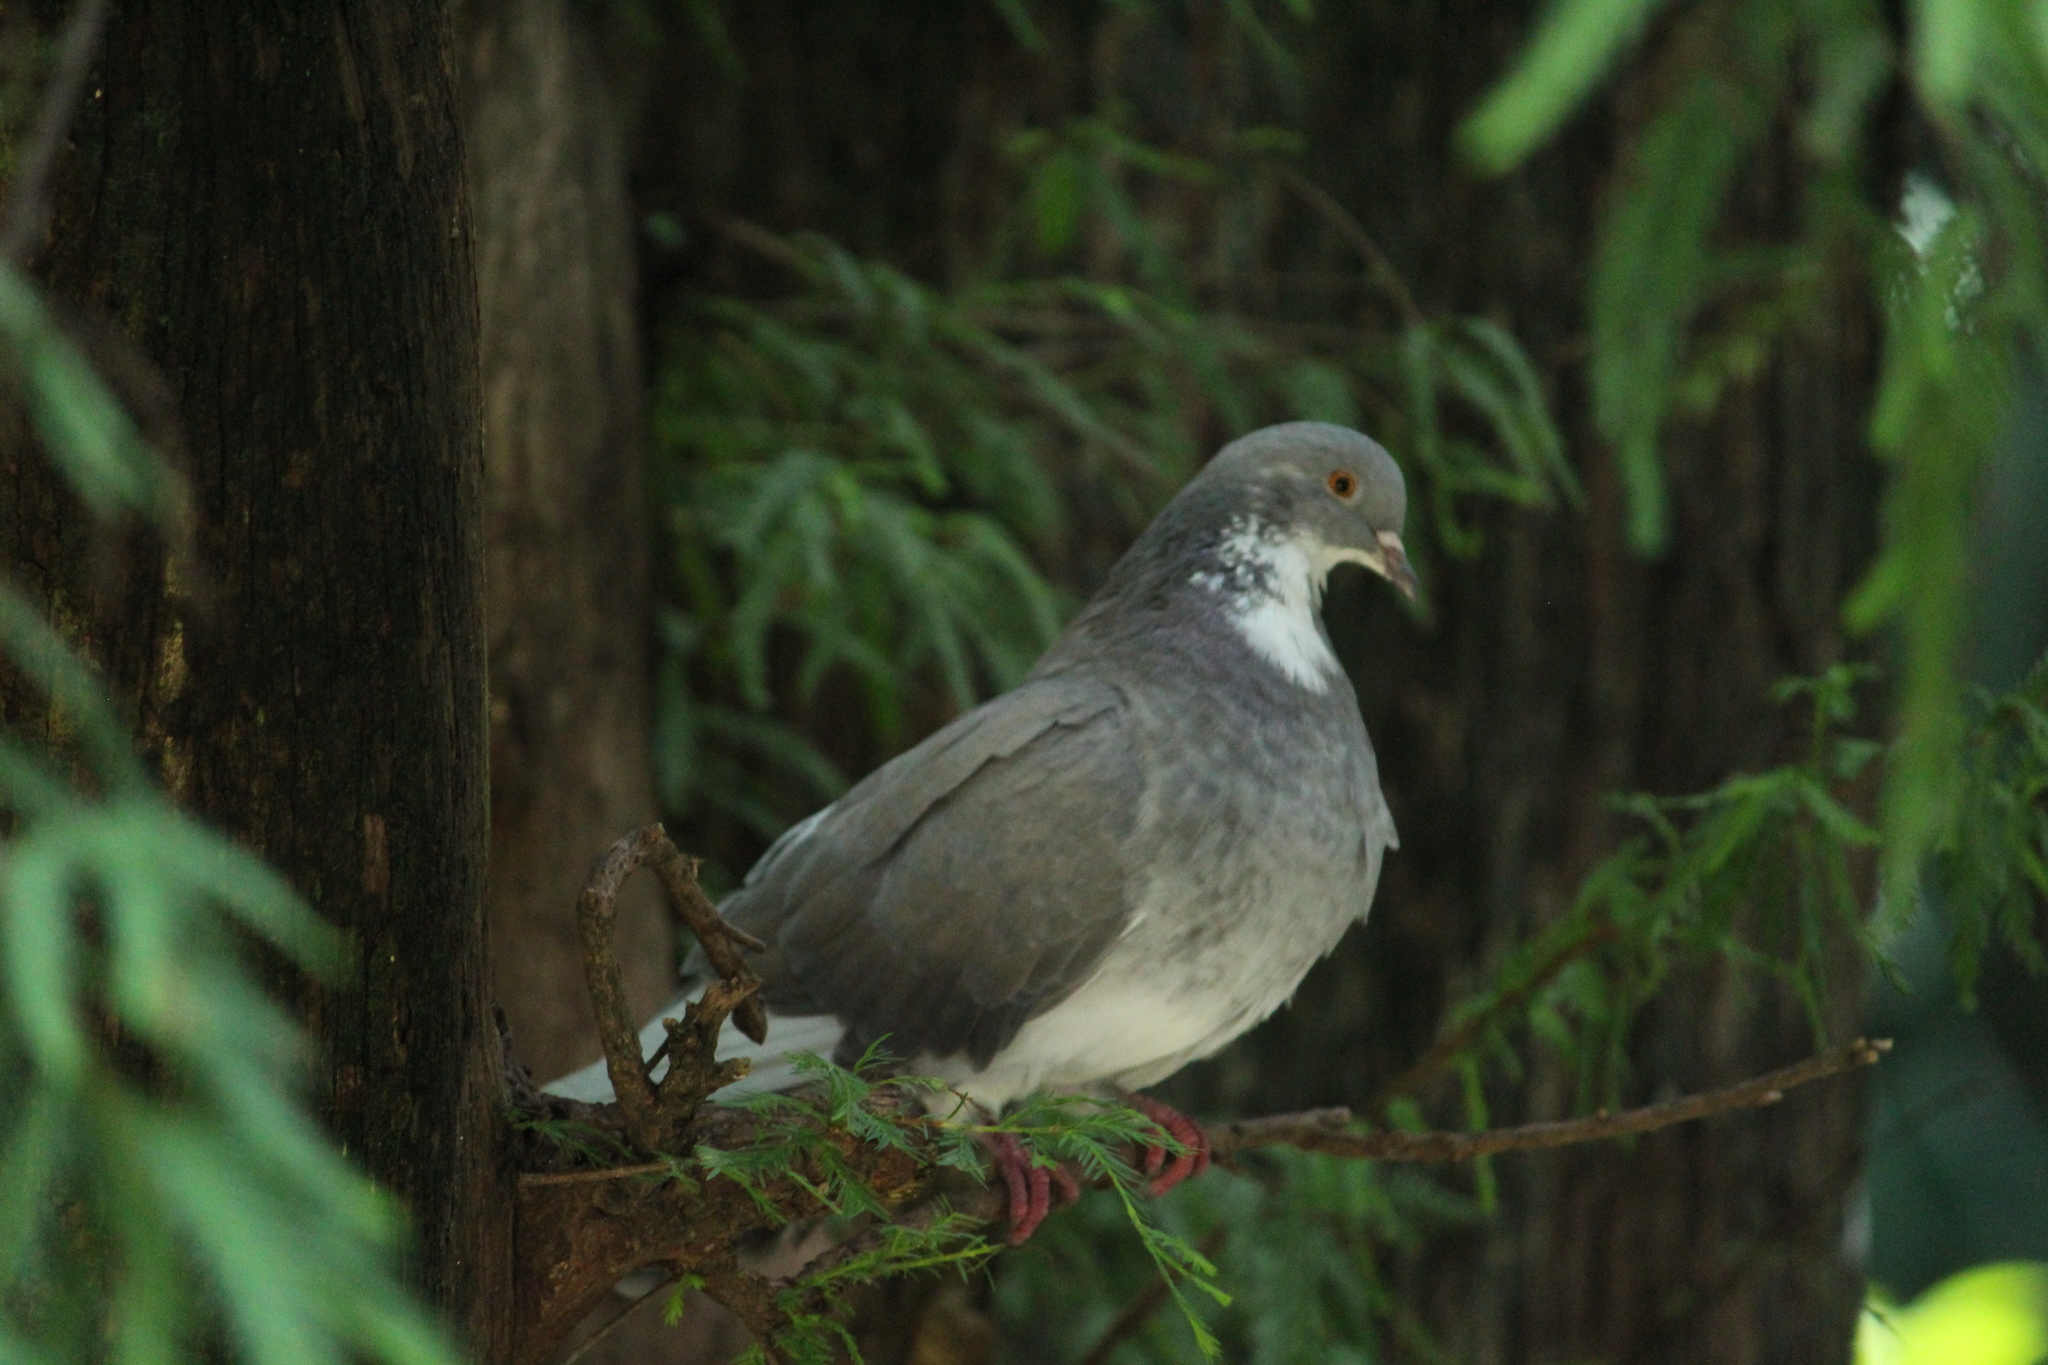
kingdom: Animalia
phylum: Chordata
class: Aves
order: Columbiformes
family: Columbidae
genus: Columba
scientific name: Columba livia
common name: Rock pigeon
